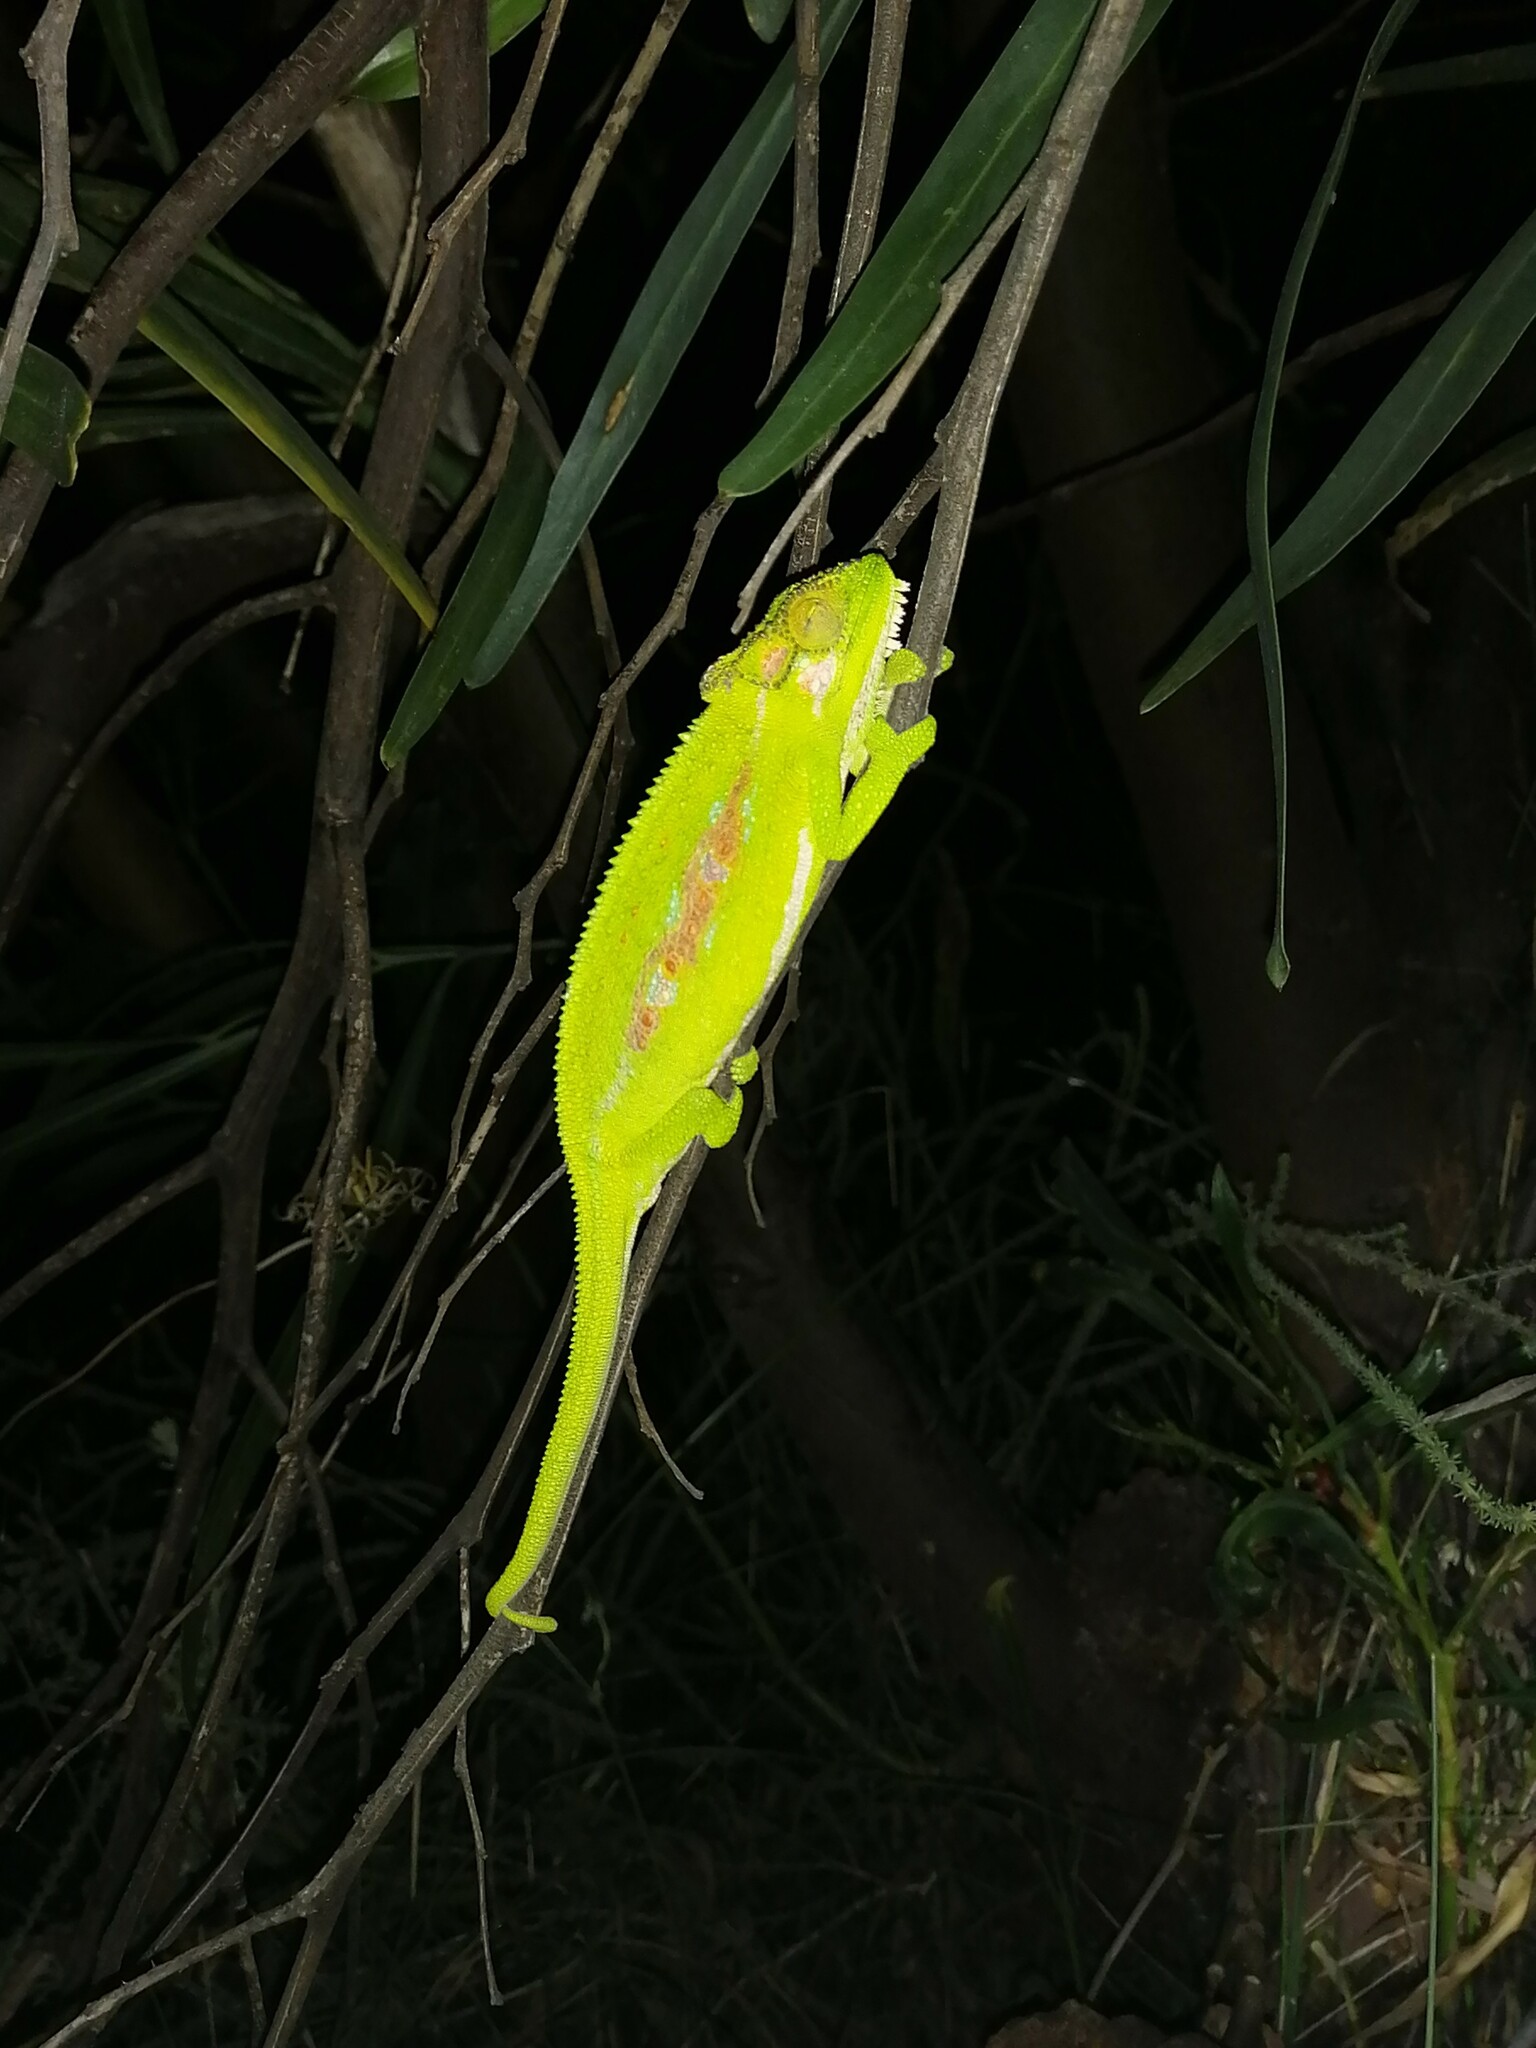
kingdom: Animalia
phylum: Chordata
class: Squamata
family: Chamaeleonidae
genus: Bradypodion
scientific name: Bradypodion pumilum
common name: Cape dwarf chameleon
